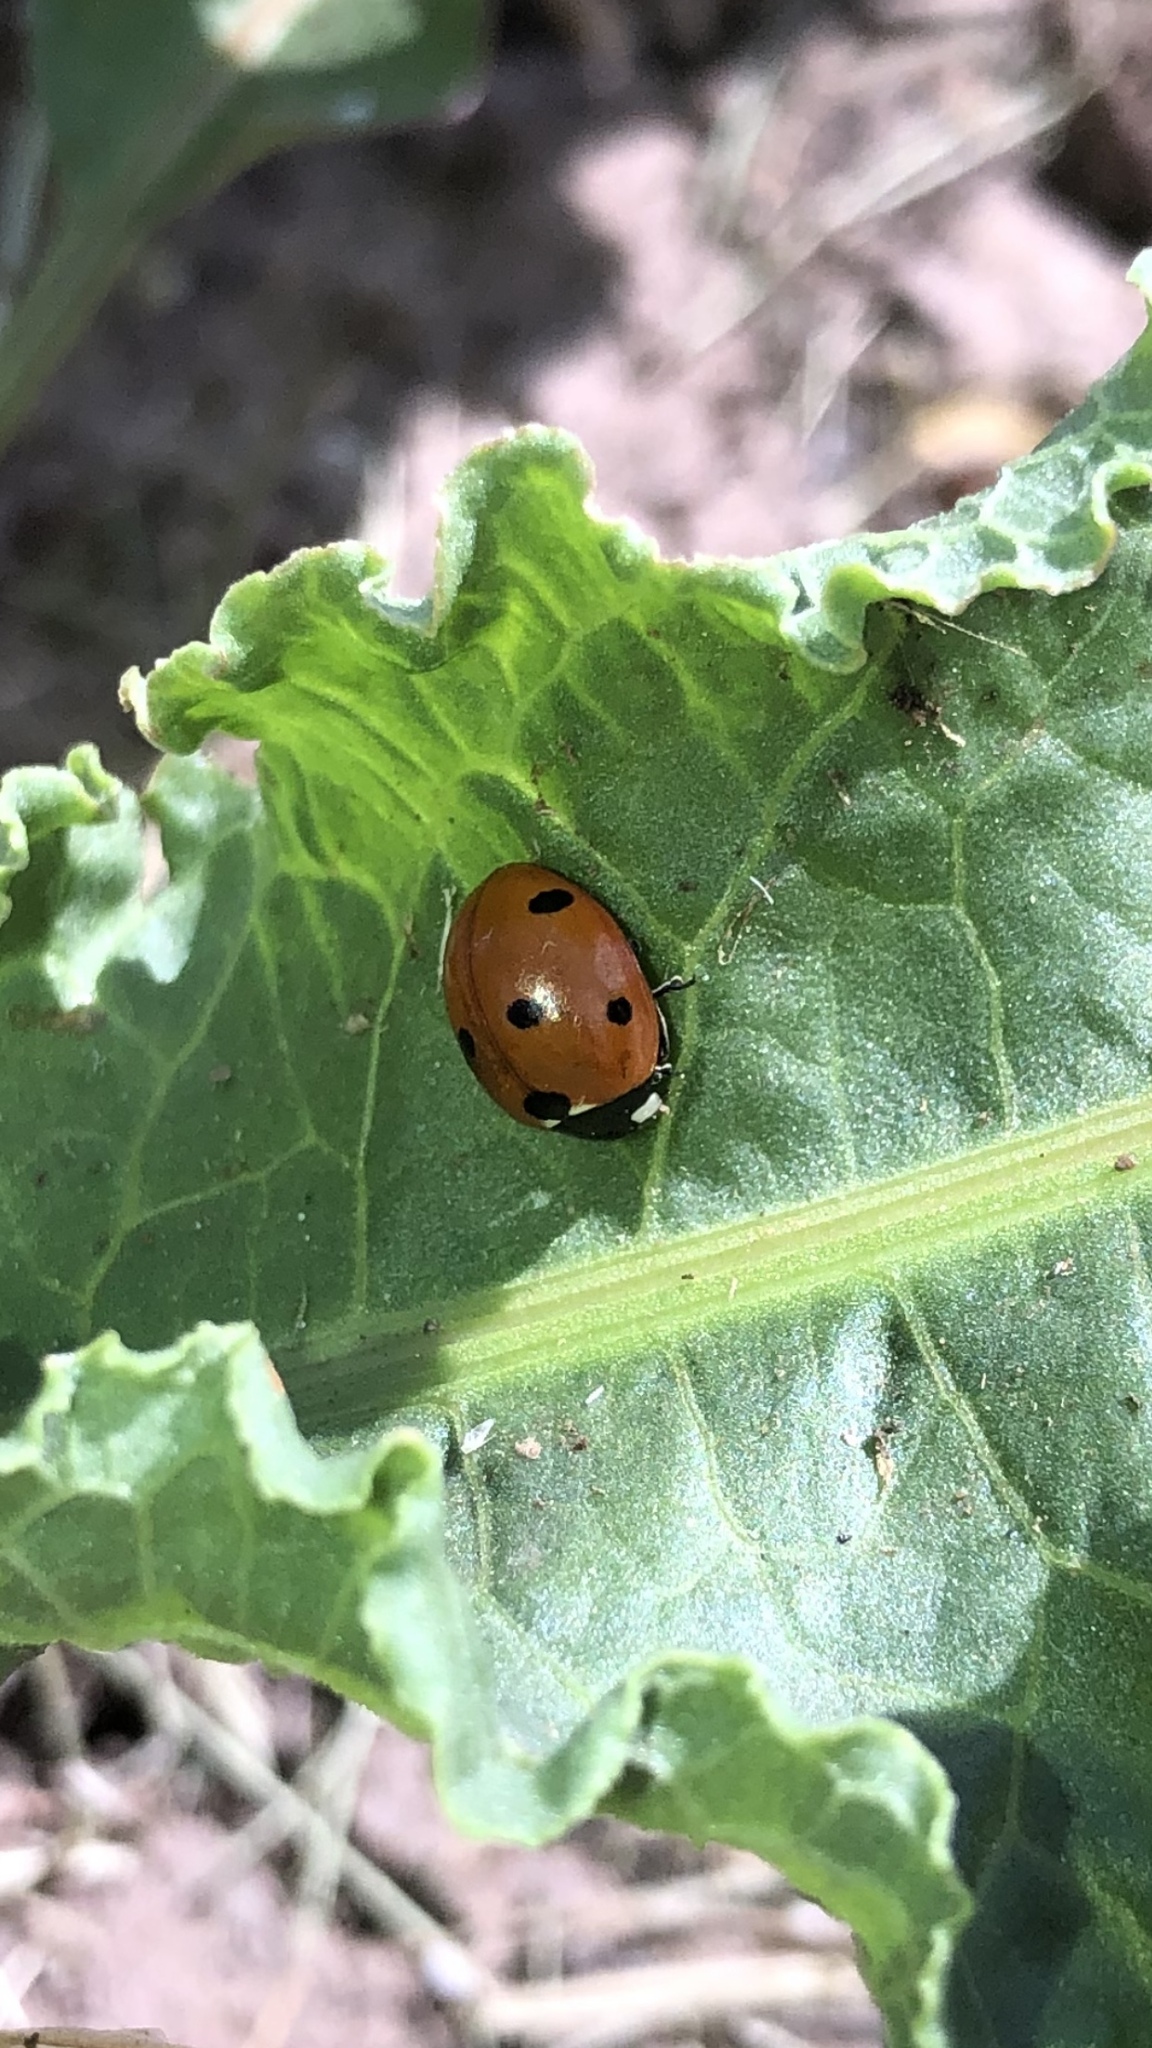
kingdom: Animalia
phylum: Arthropoda
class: Insecta
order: Coleoptera
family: Coccinellidae
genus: Coccinella
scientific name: Coccinella septempunctata
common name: Sevenspotted lady beetle
